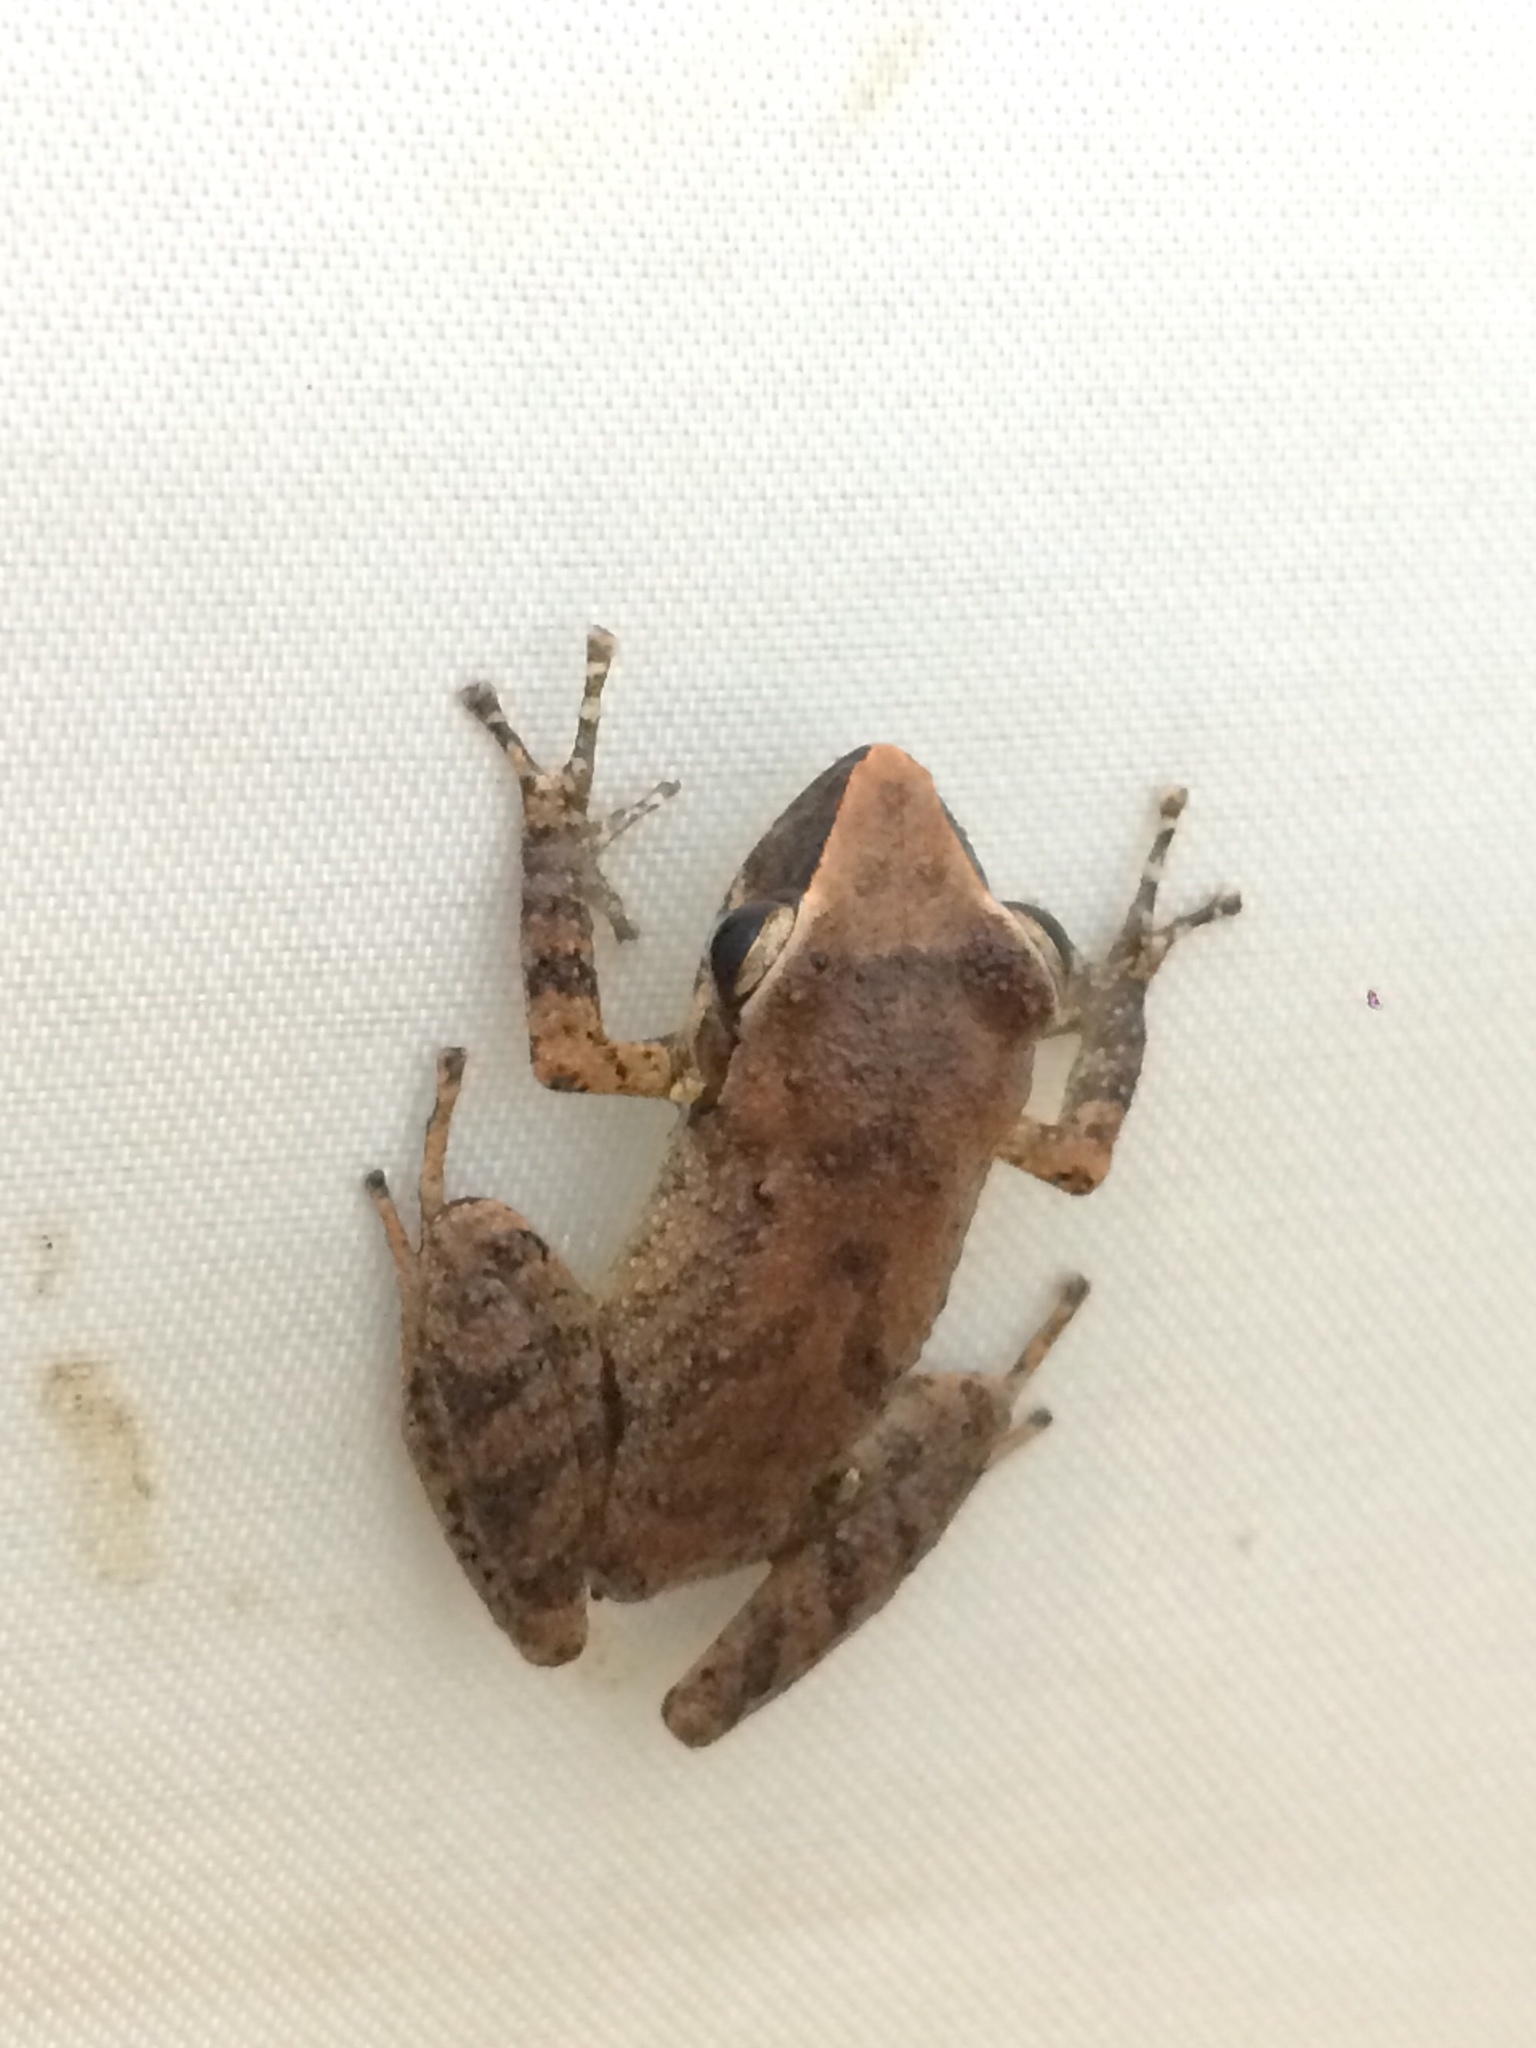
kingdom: Animalia
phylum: Chordata
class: Amphibia
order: Anura
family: Craugastoridae
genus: Pristimantis
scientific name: Pristimantis paulodutrai
